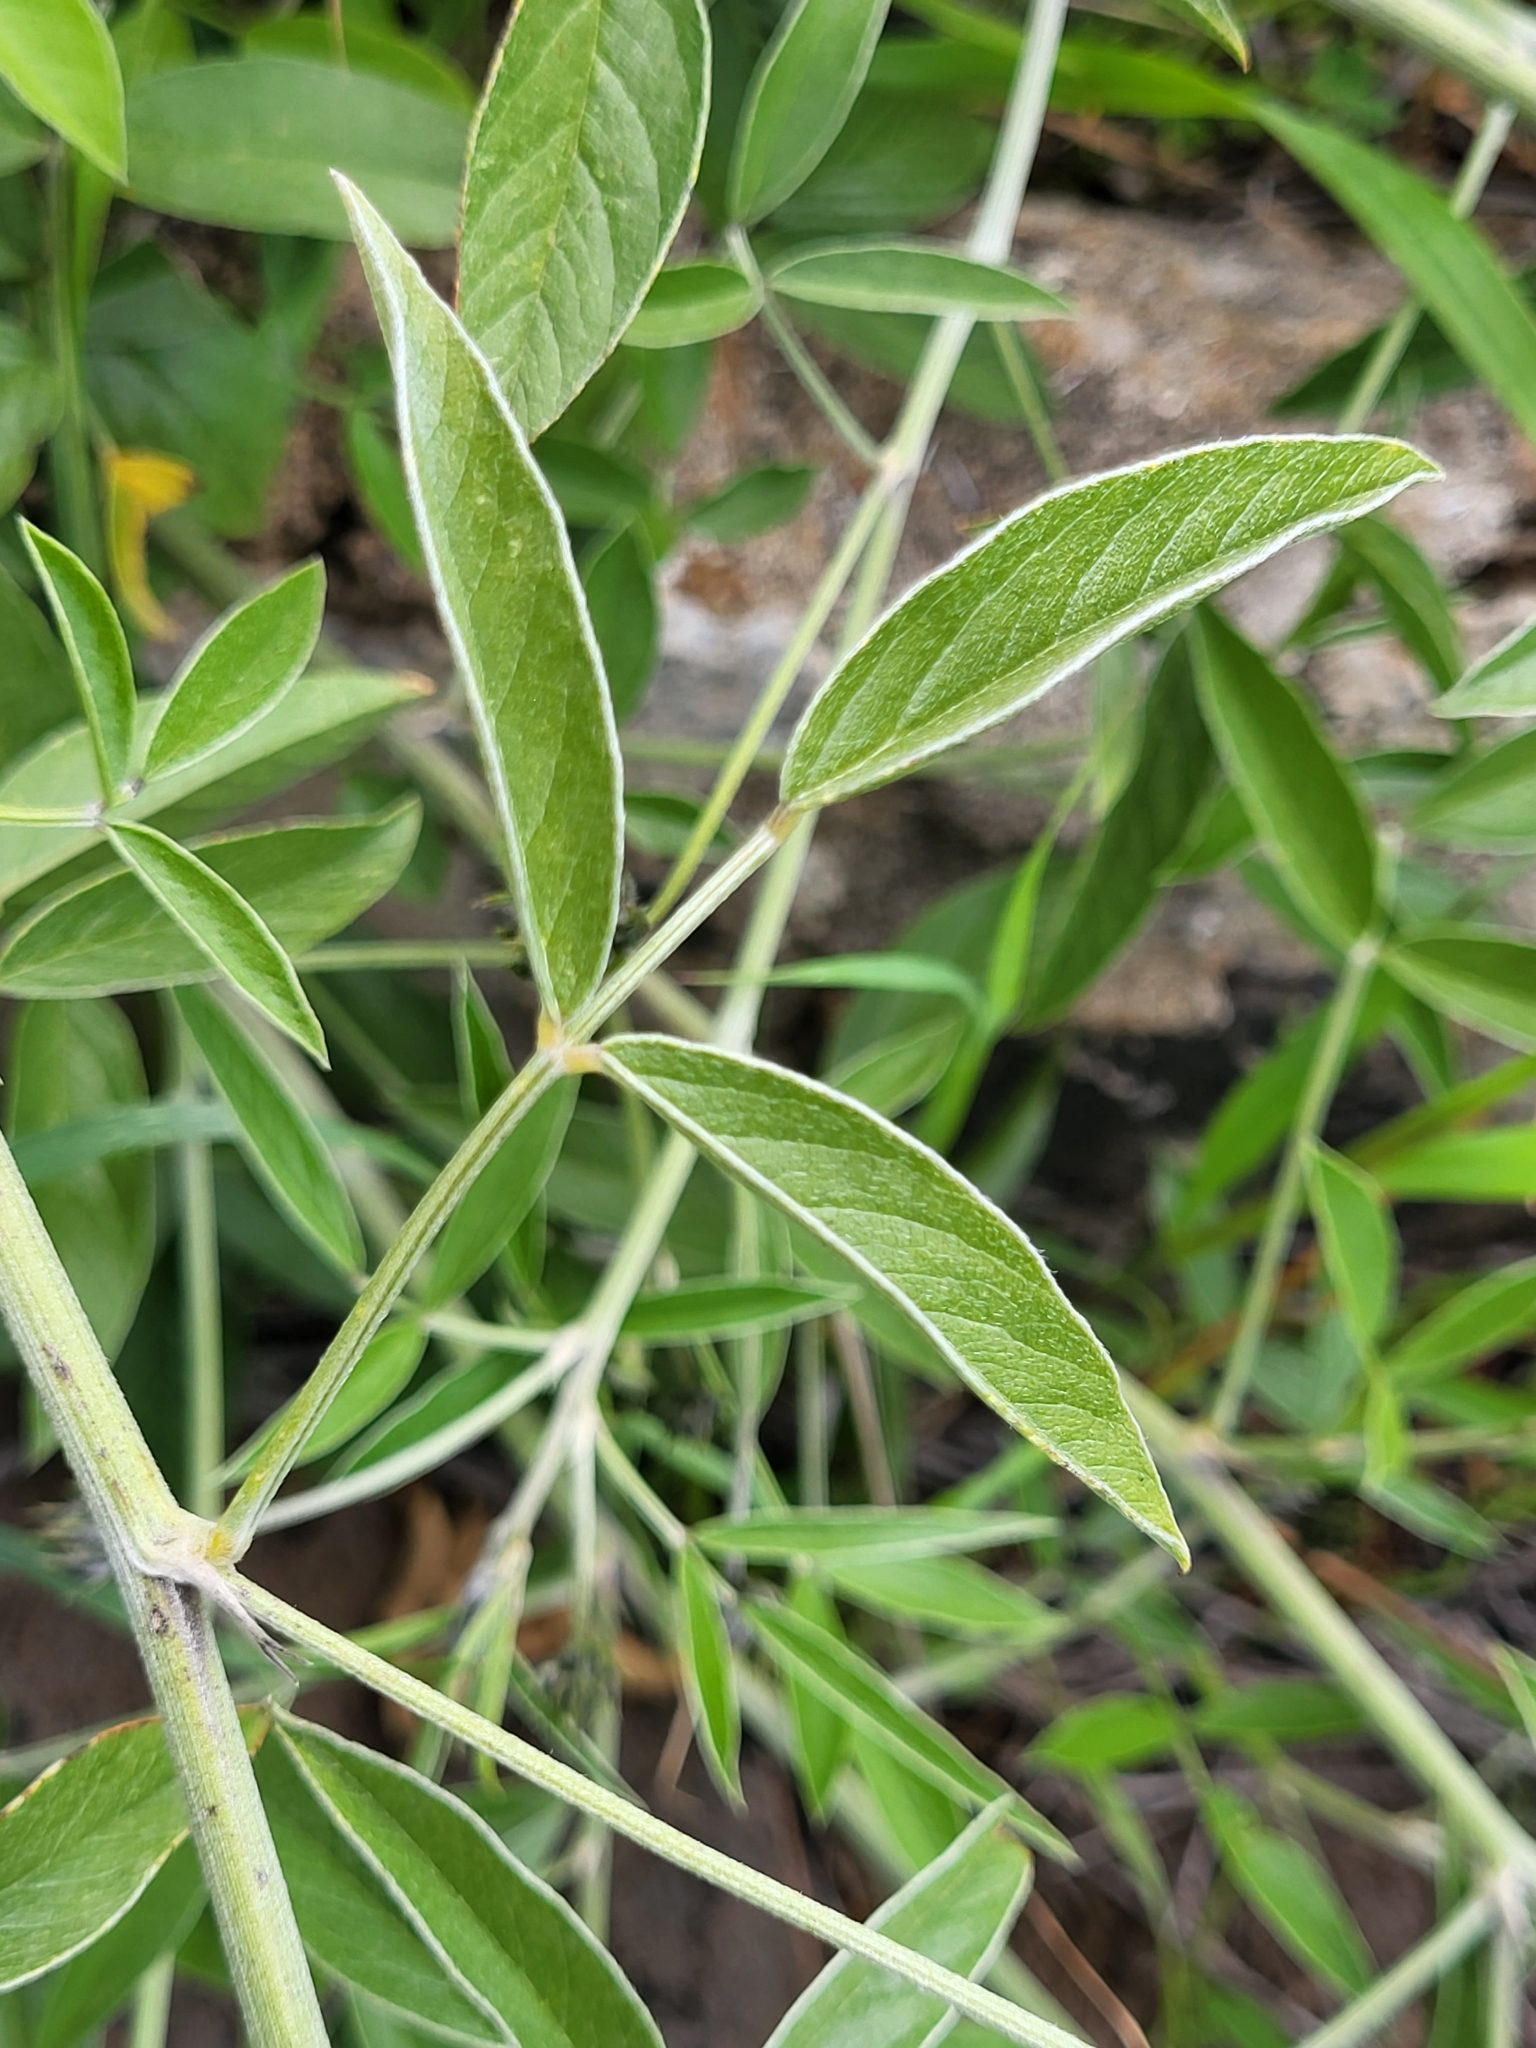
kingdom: Plantae
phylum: Tracheophyta
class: Magnoliopsida
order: Fabales
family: Fabaceae
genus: Bituminaria
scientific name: Bituminaria bituminosa
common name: Arabian pea
